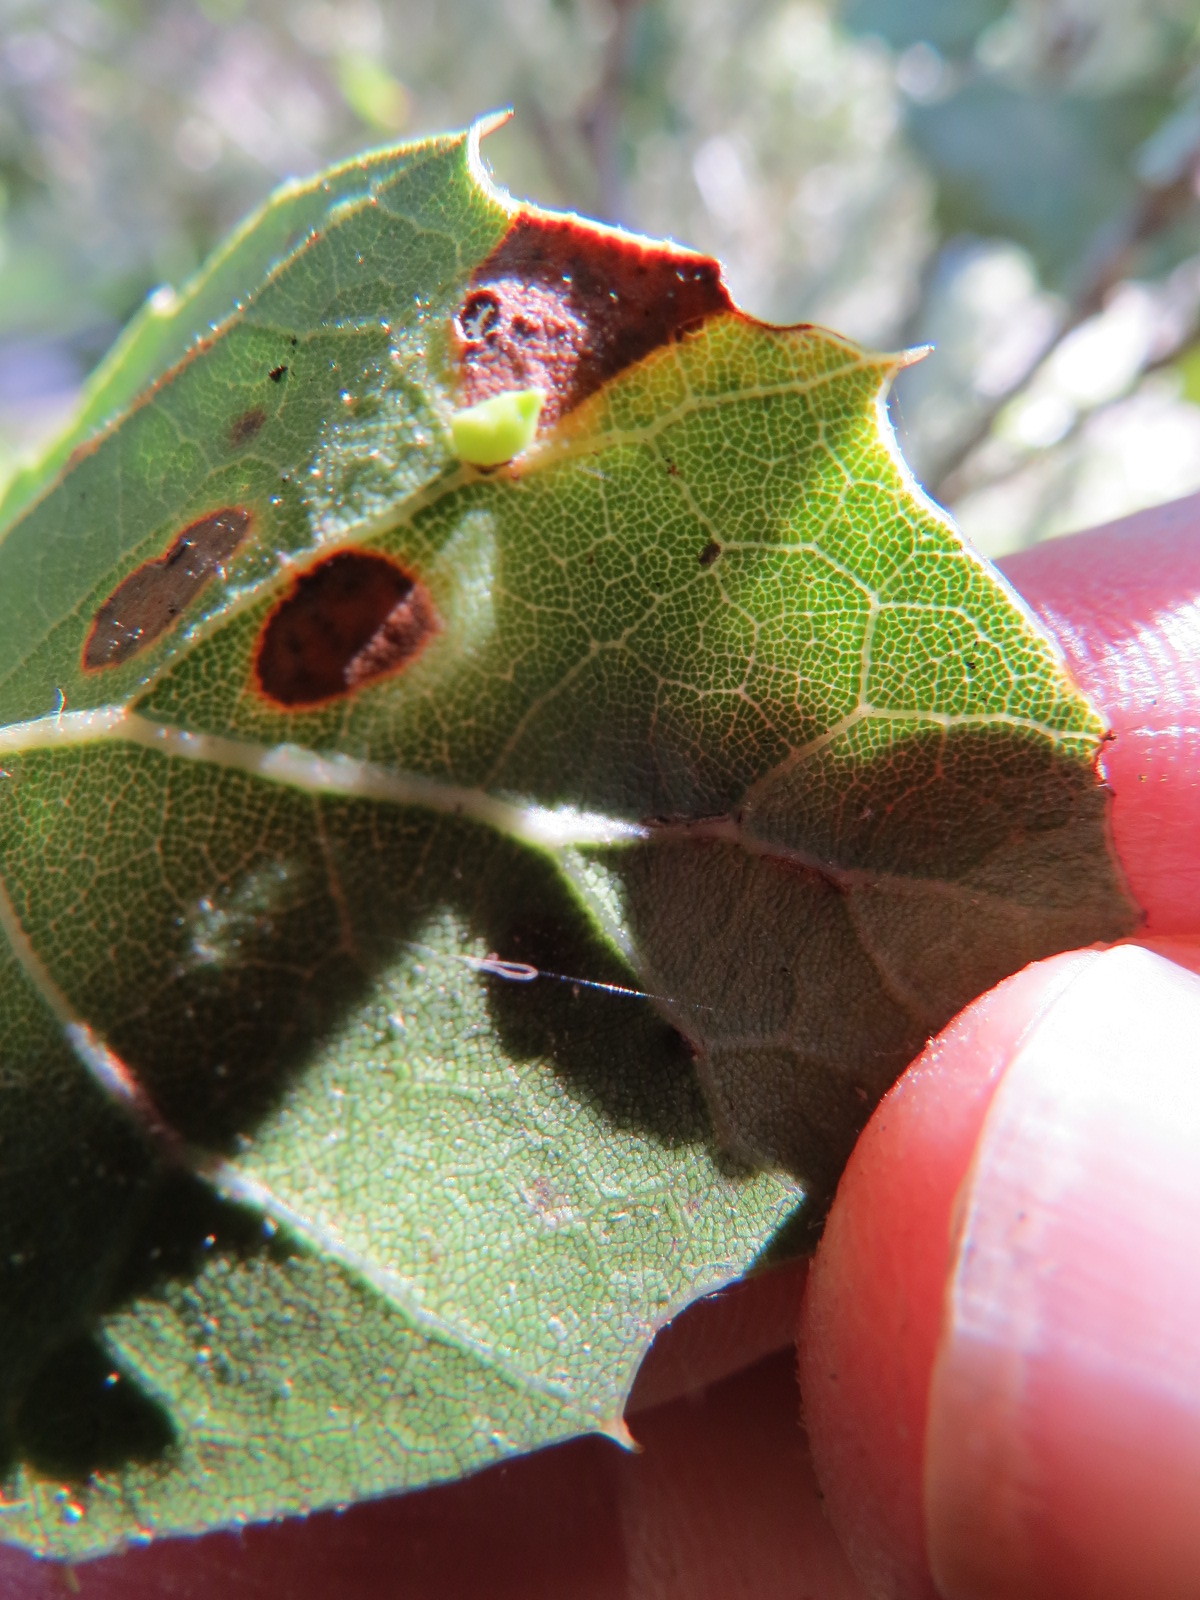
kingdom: Animalia
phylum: Arthropoda
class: Insecta
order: Hymenoptera
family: Cynipidae
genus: Dryocosmus
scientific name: Dryocosmus
